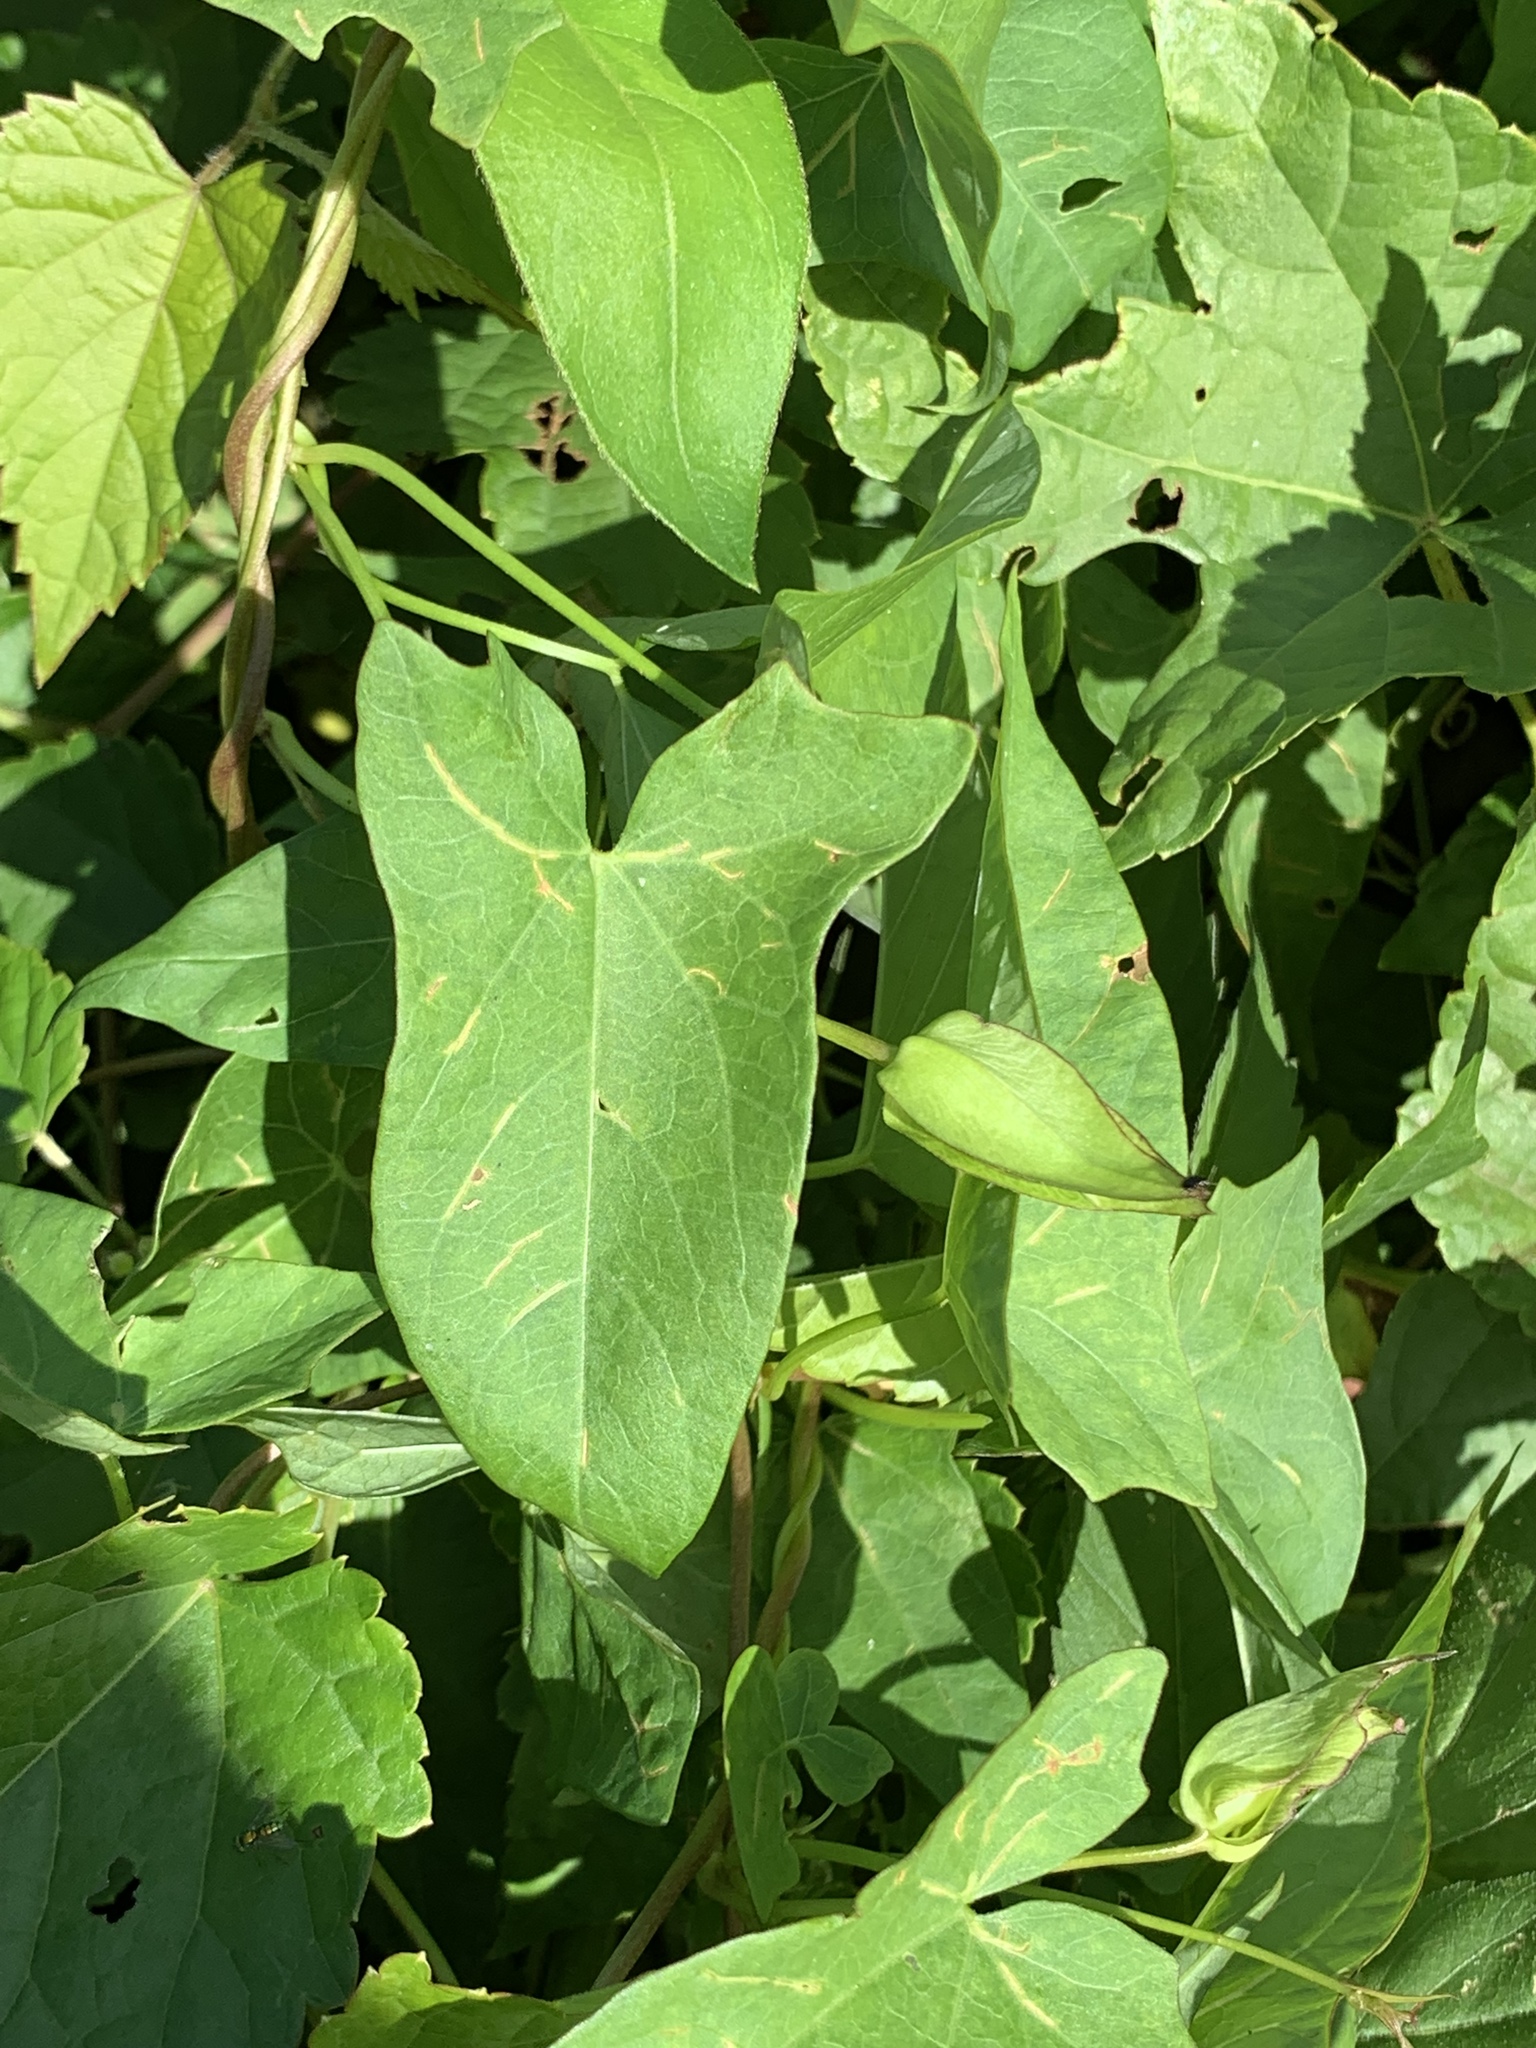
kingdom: Plantae
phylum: Tracheophyta
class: Magnoliopsida
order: Solanales
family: Convolvulaceae
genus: Calystegia
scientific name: Calystegia sepium
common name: Hedge bindweed
